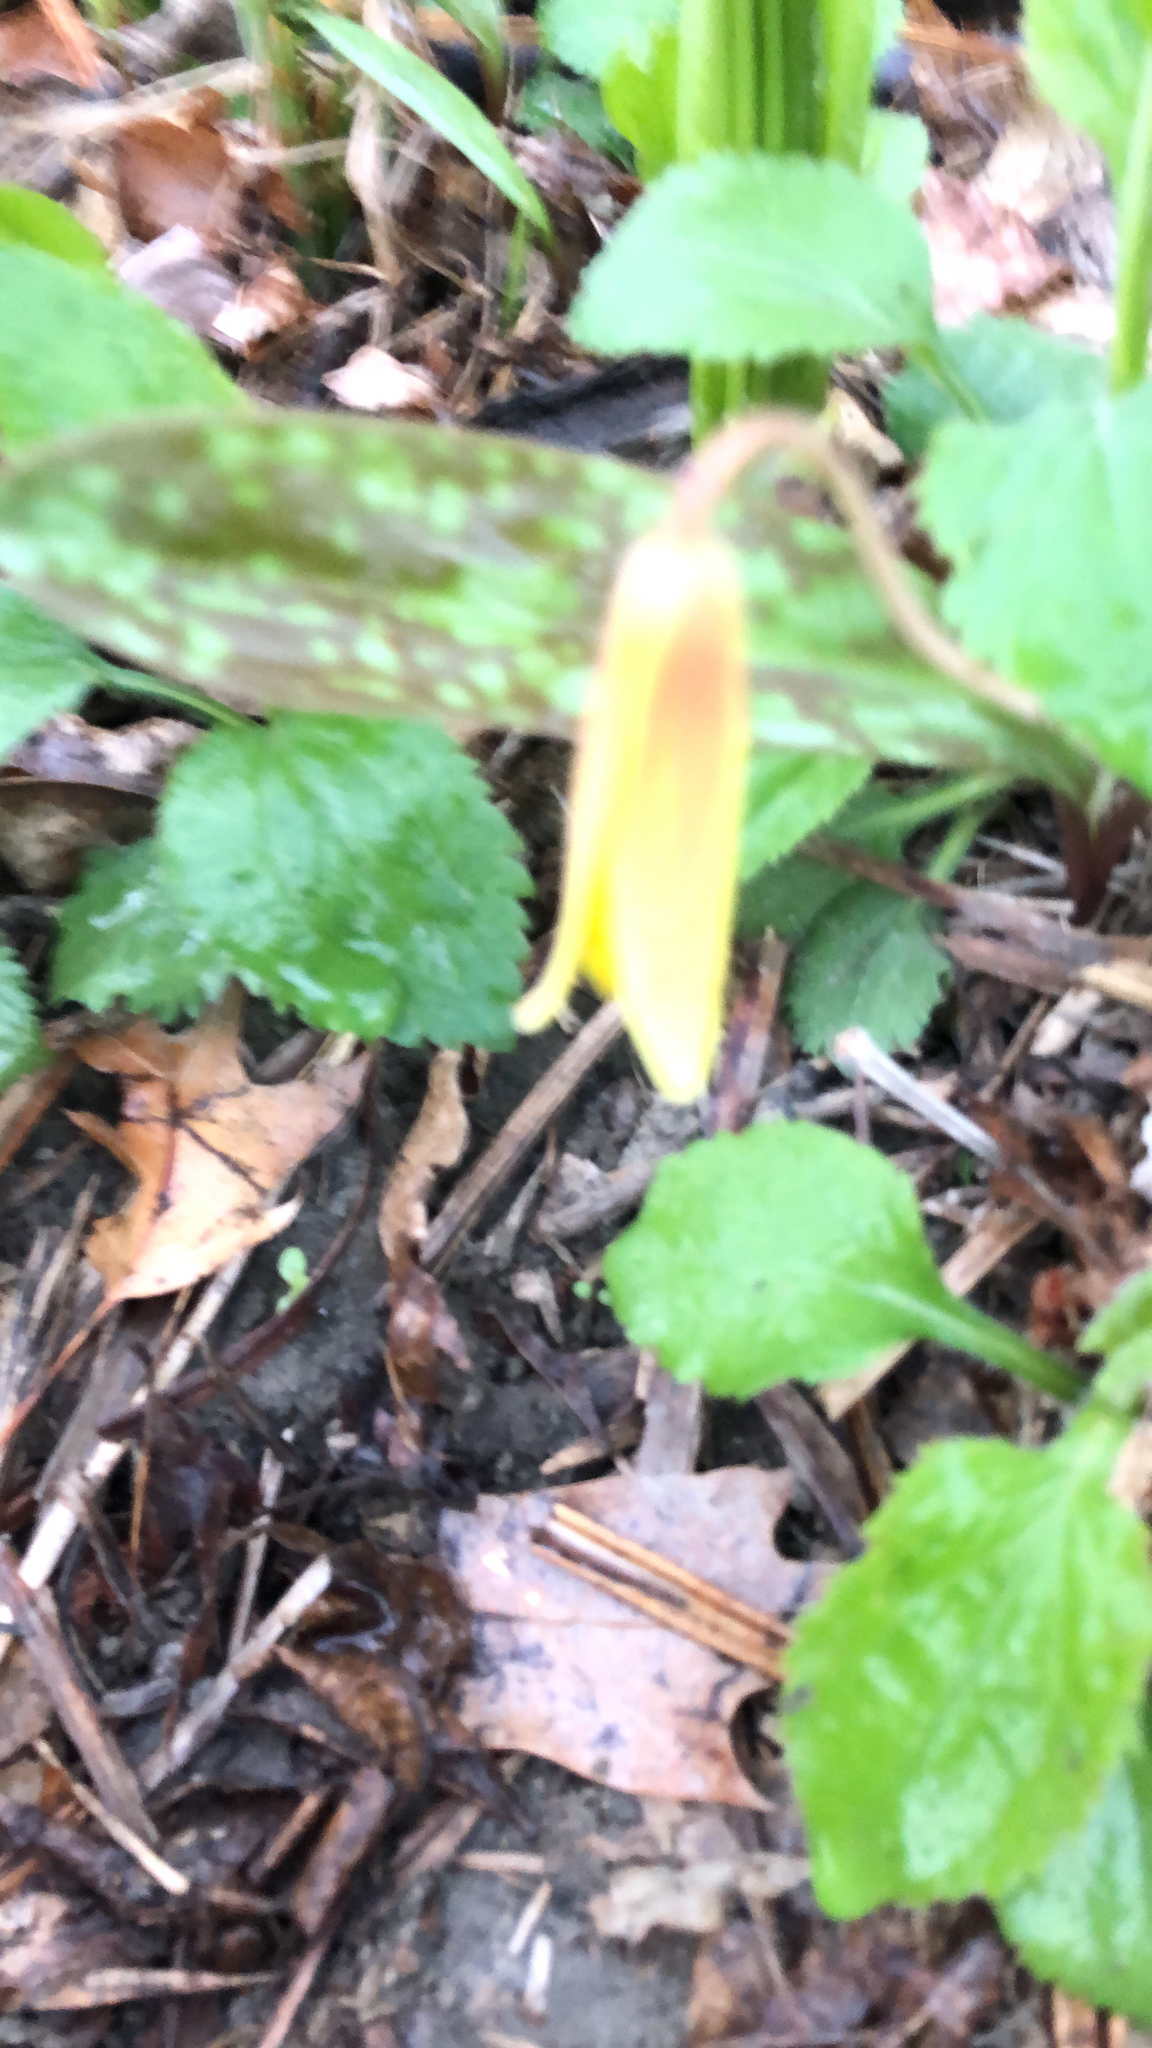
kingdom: Plantae
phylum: Tracheophyta
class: Liliopsida
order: Liliales
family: Liliaceae
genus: Erythronium
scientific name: Erythronium americanum
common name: Yellow adder's-tongue
